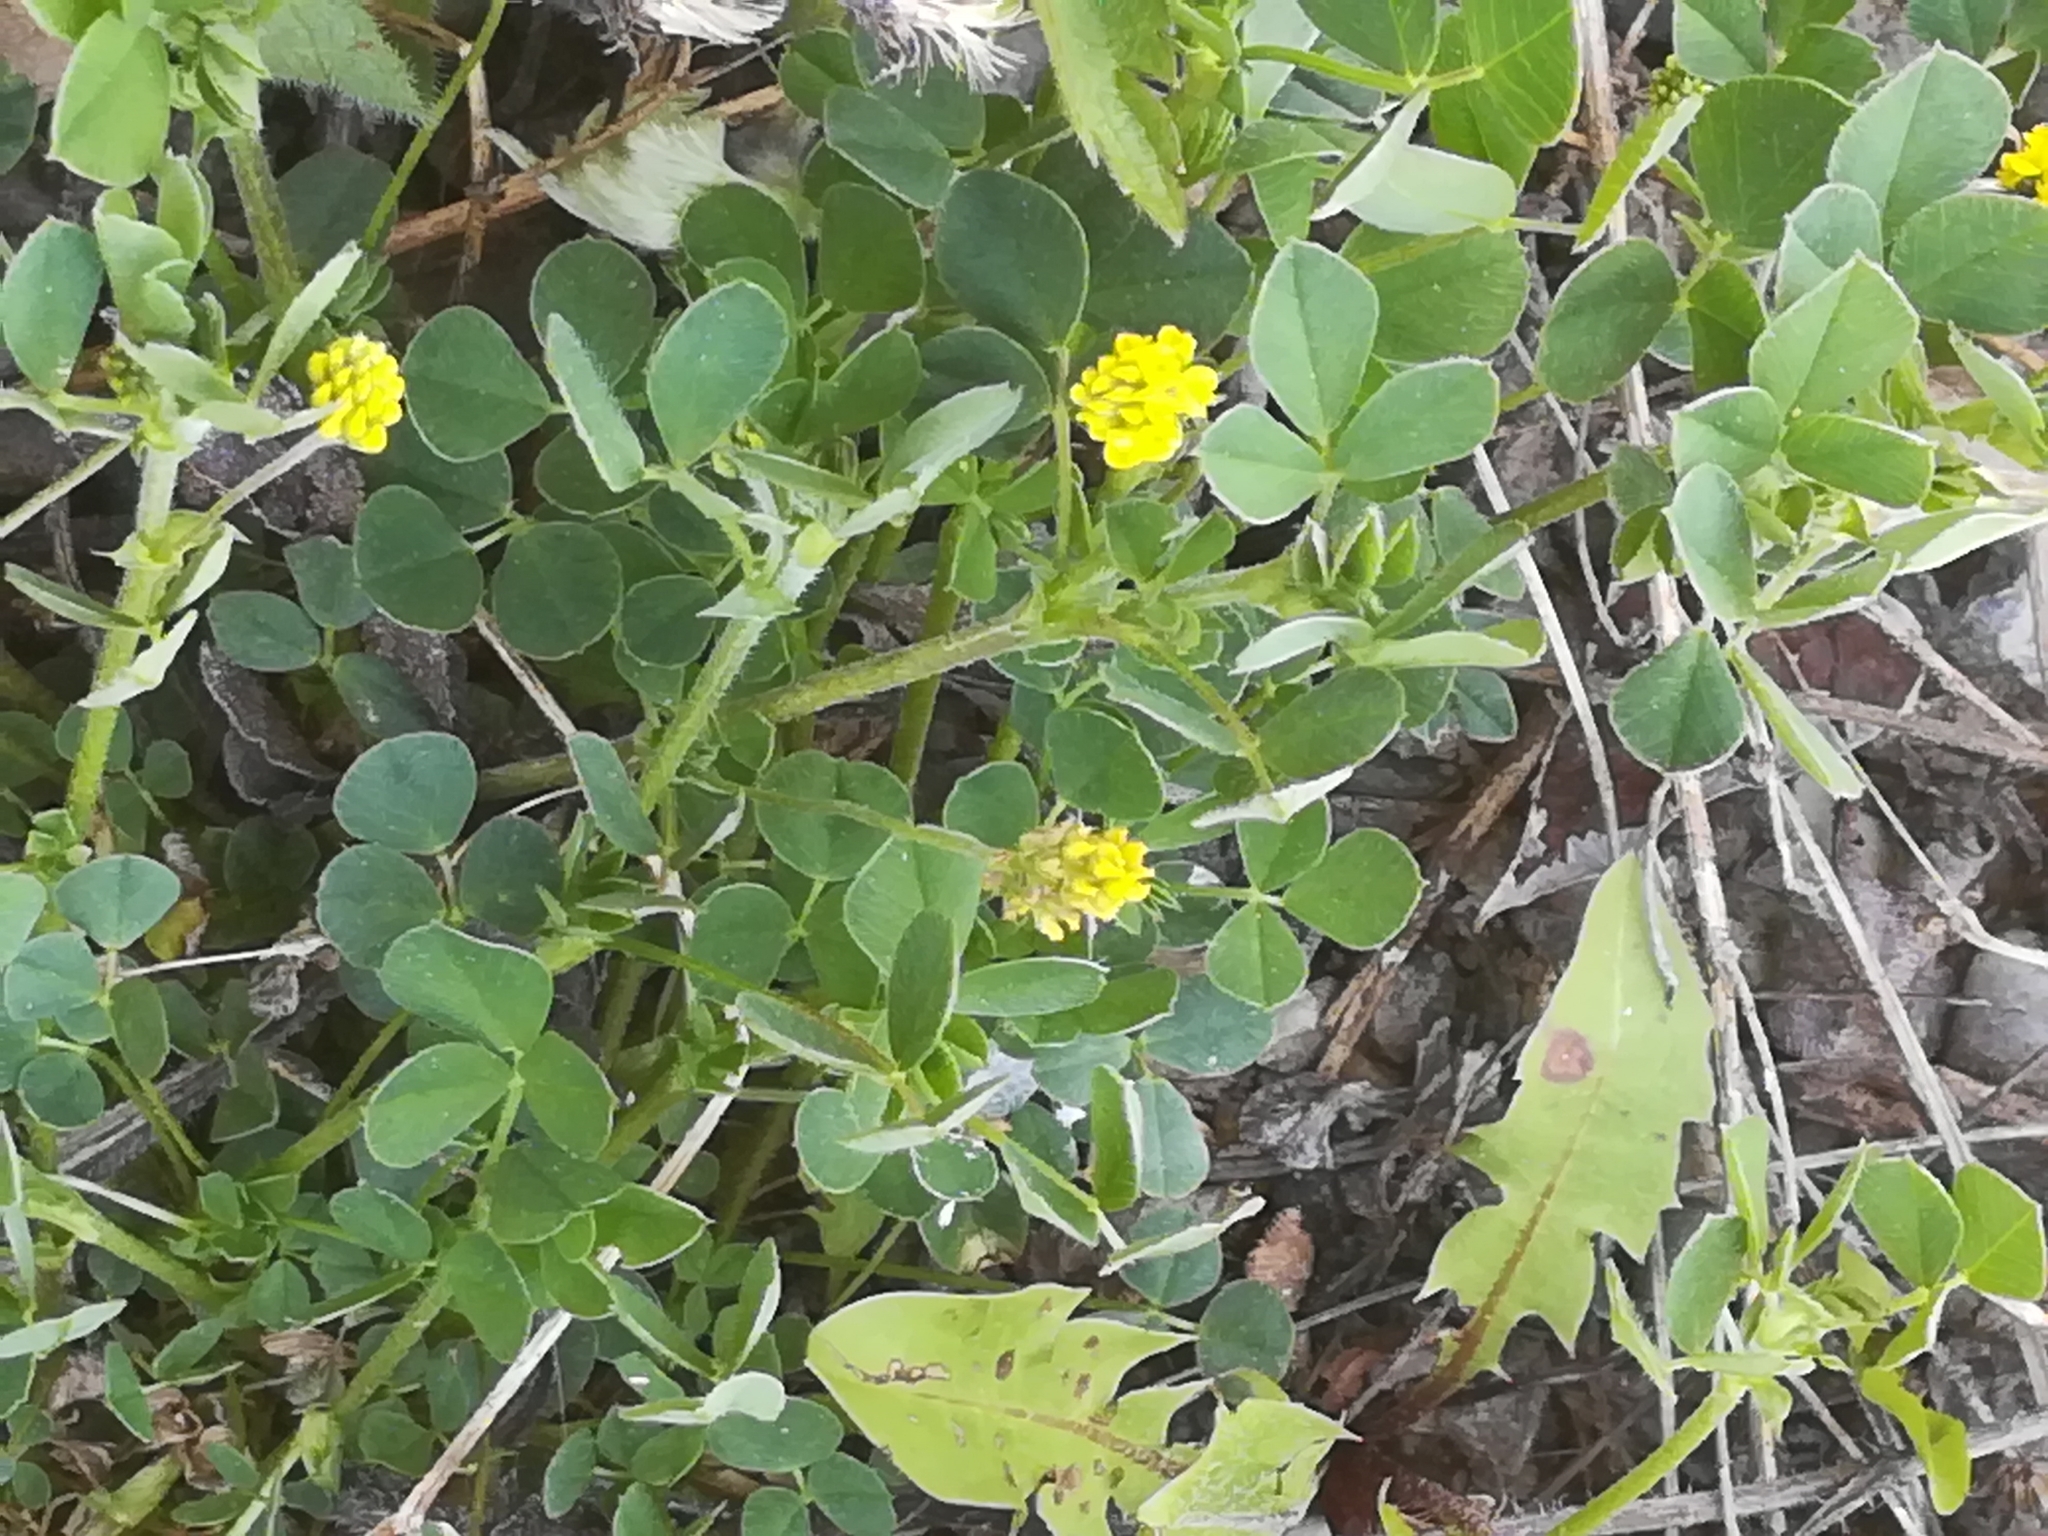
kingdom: Plantae
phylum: Tracheophyta
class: Magnoliopsida
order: Fabales
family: Fabaceae
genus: Medicago
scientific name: Medicago lupulina
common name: Black medick
